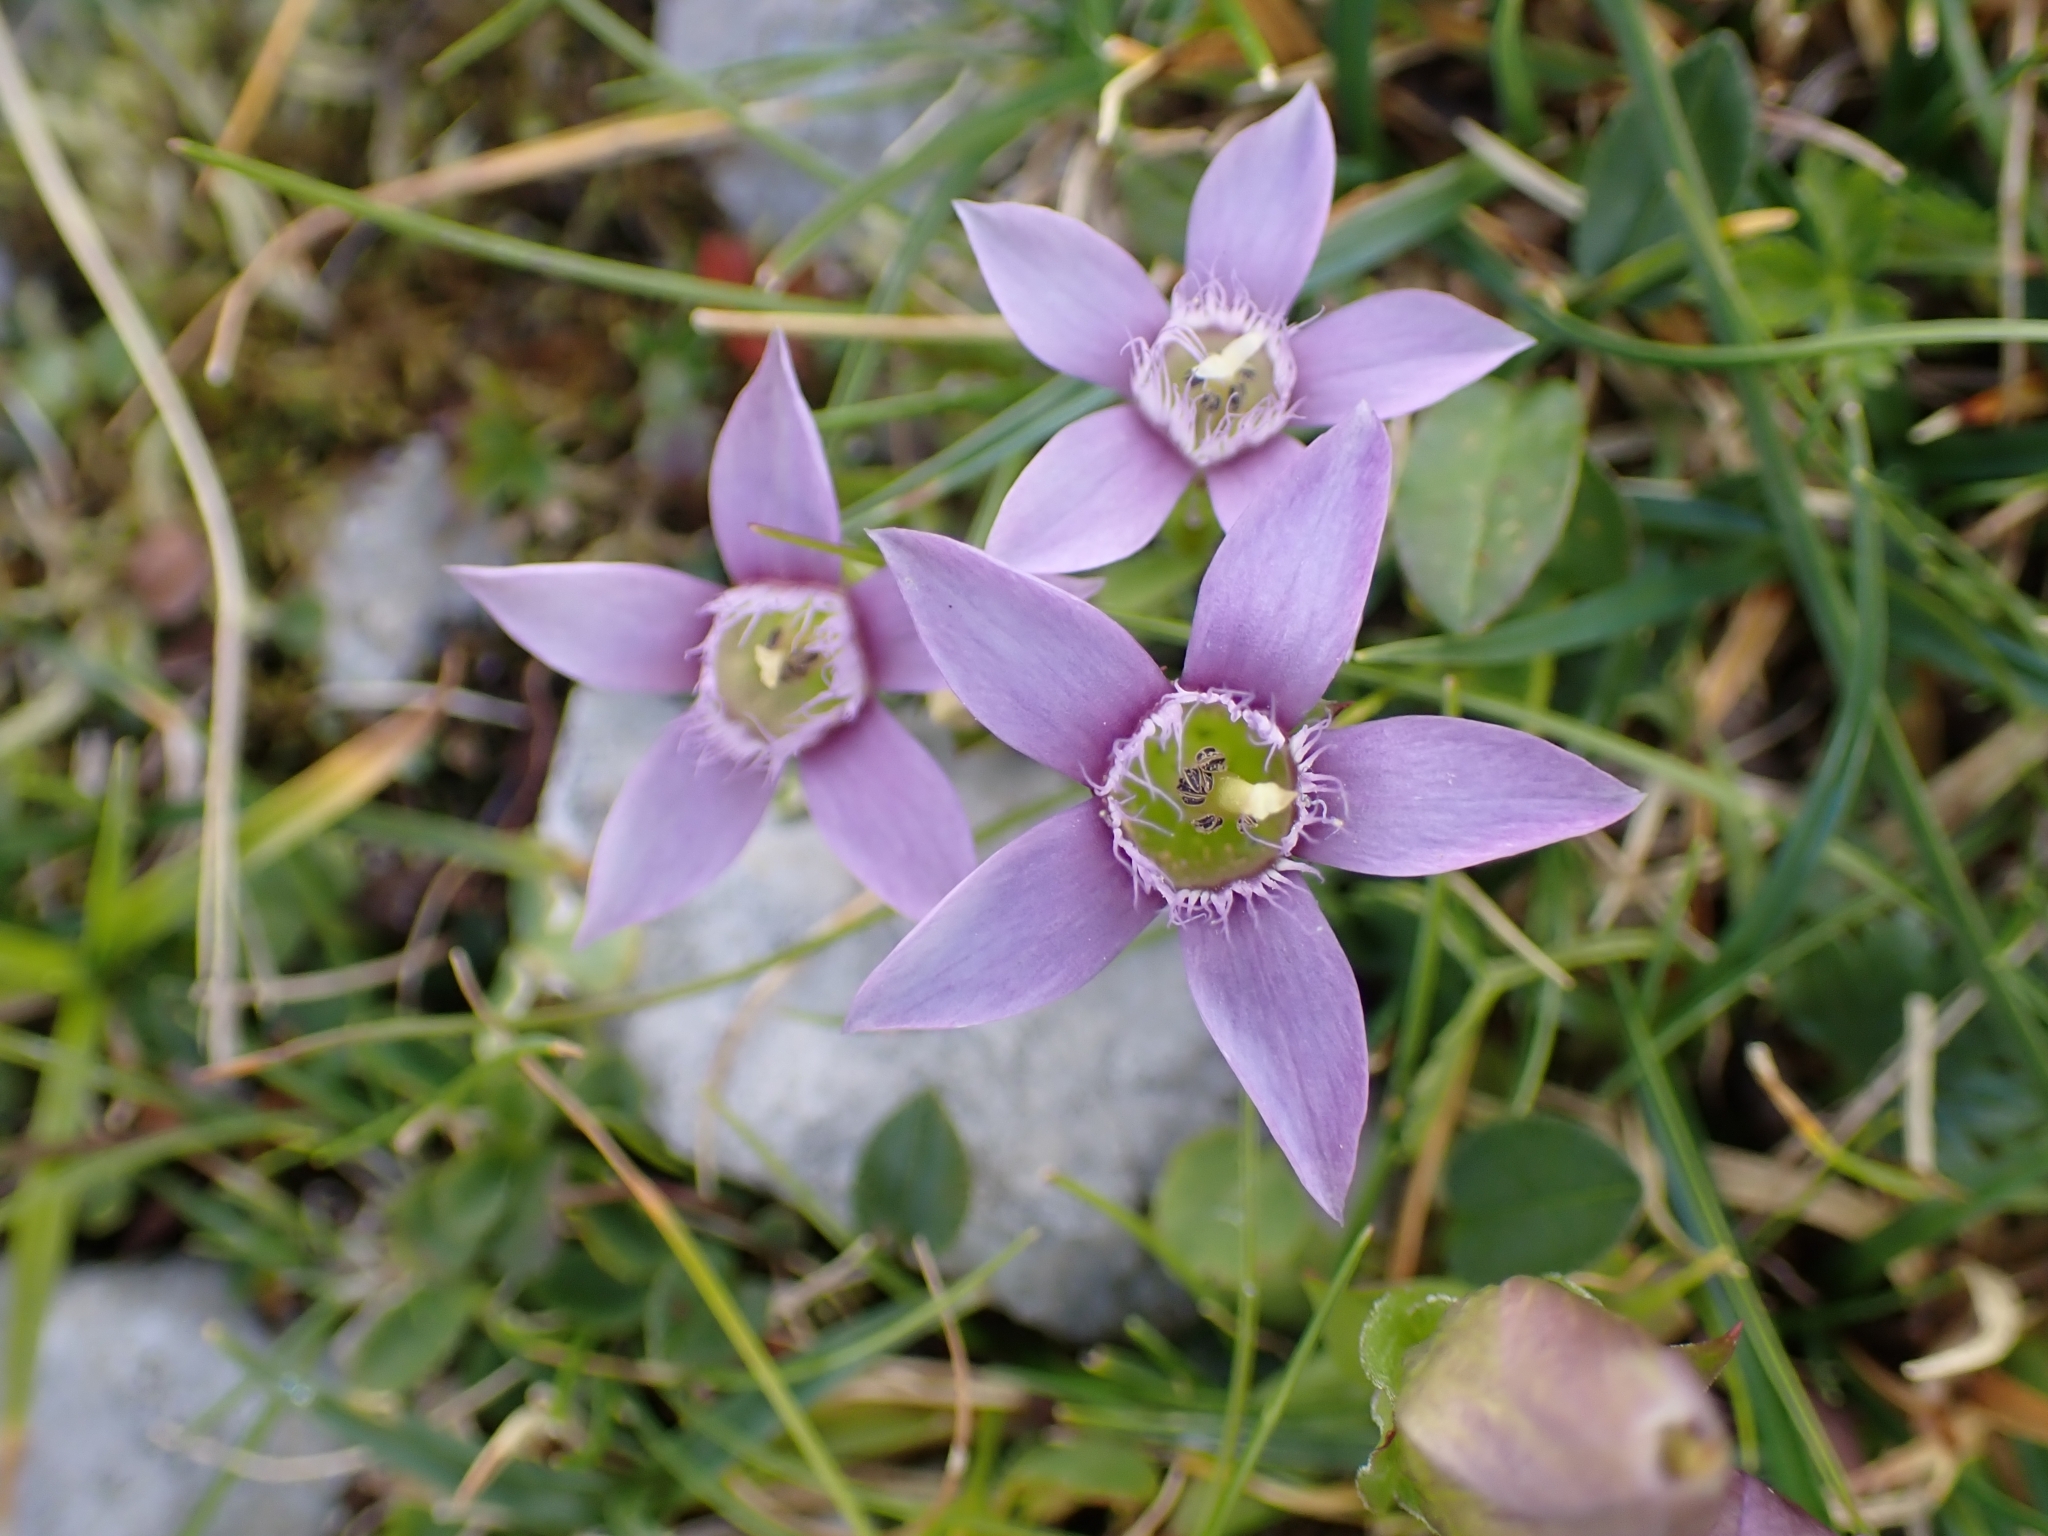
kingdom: Plantae
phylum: Tracheophyta
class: Magnoliopsida
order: Gentianales
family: Gentianaceae
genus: Gentianella
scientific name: Gentianella obtusifolia
